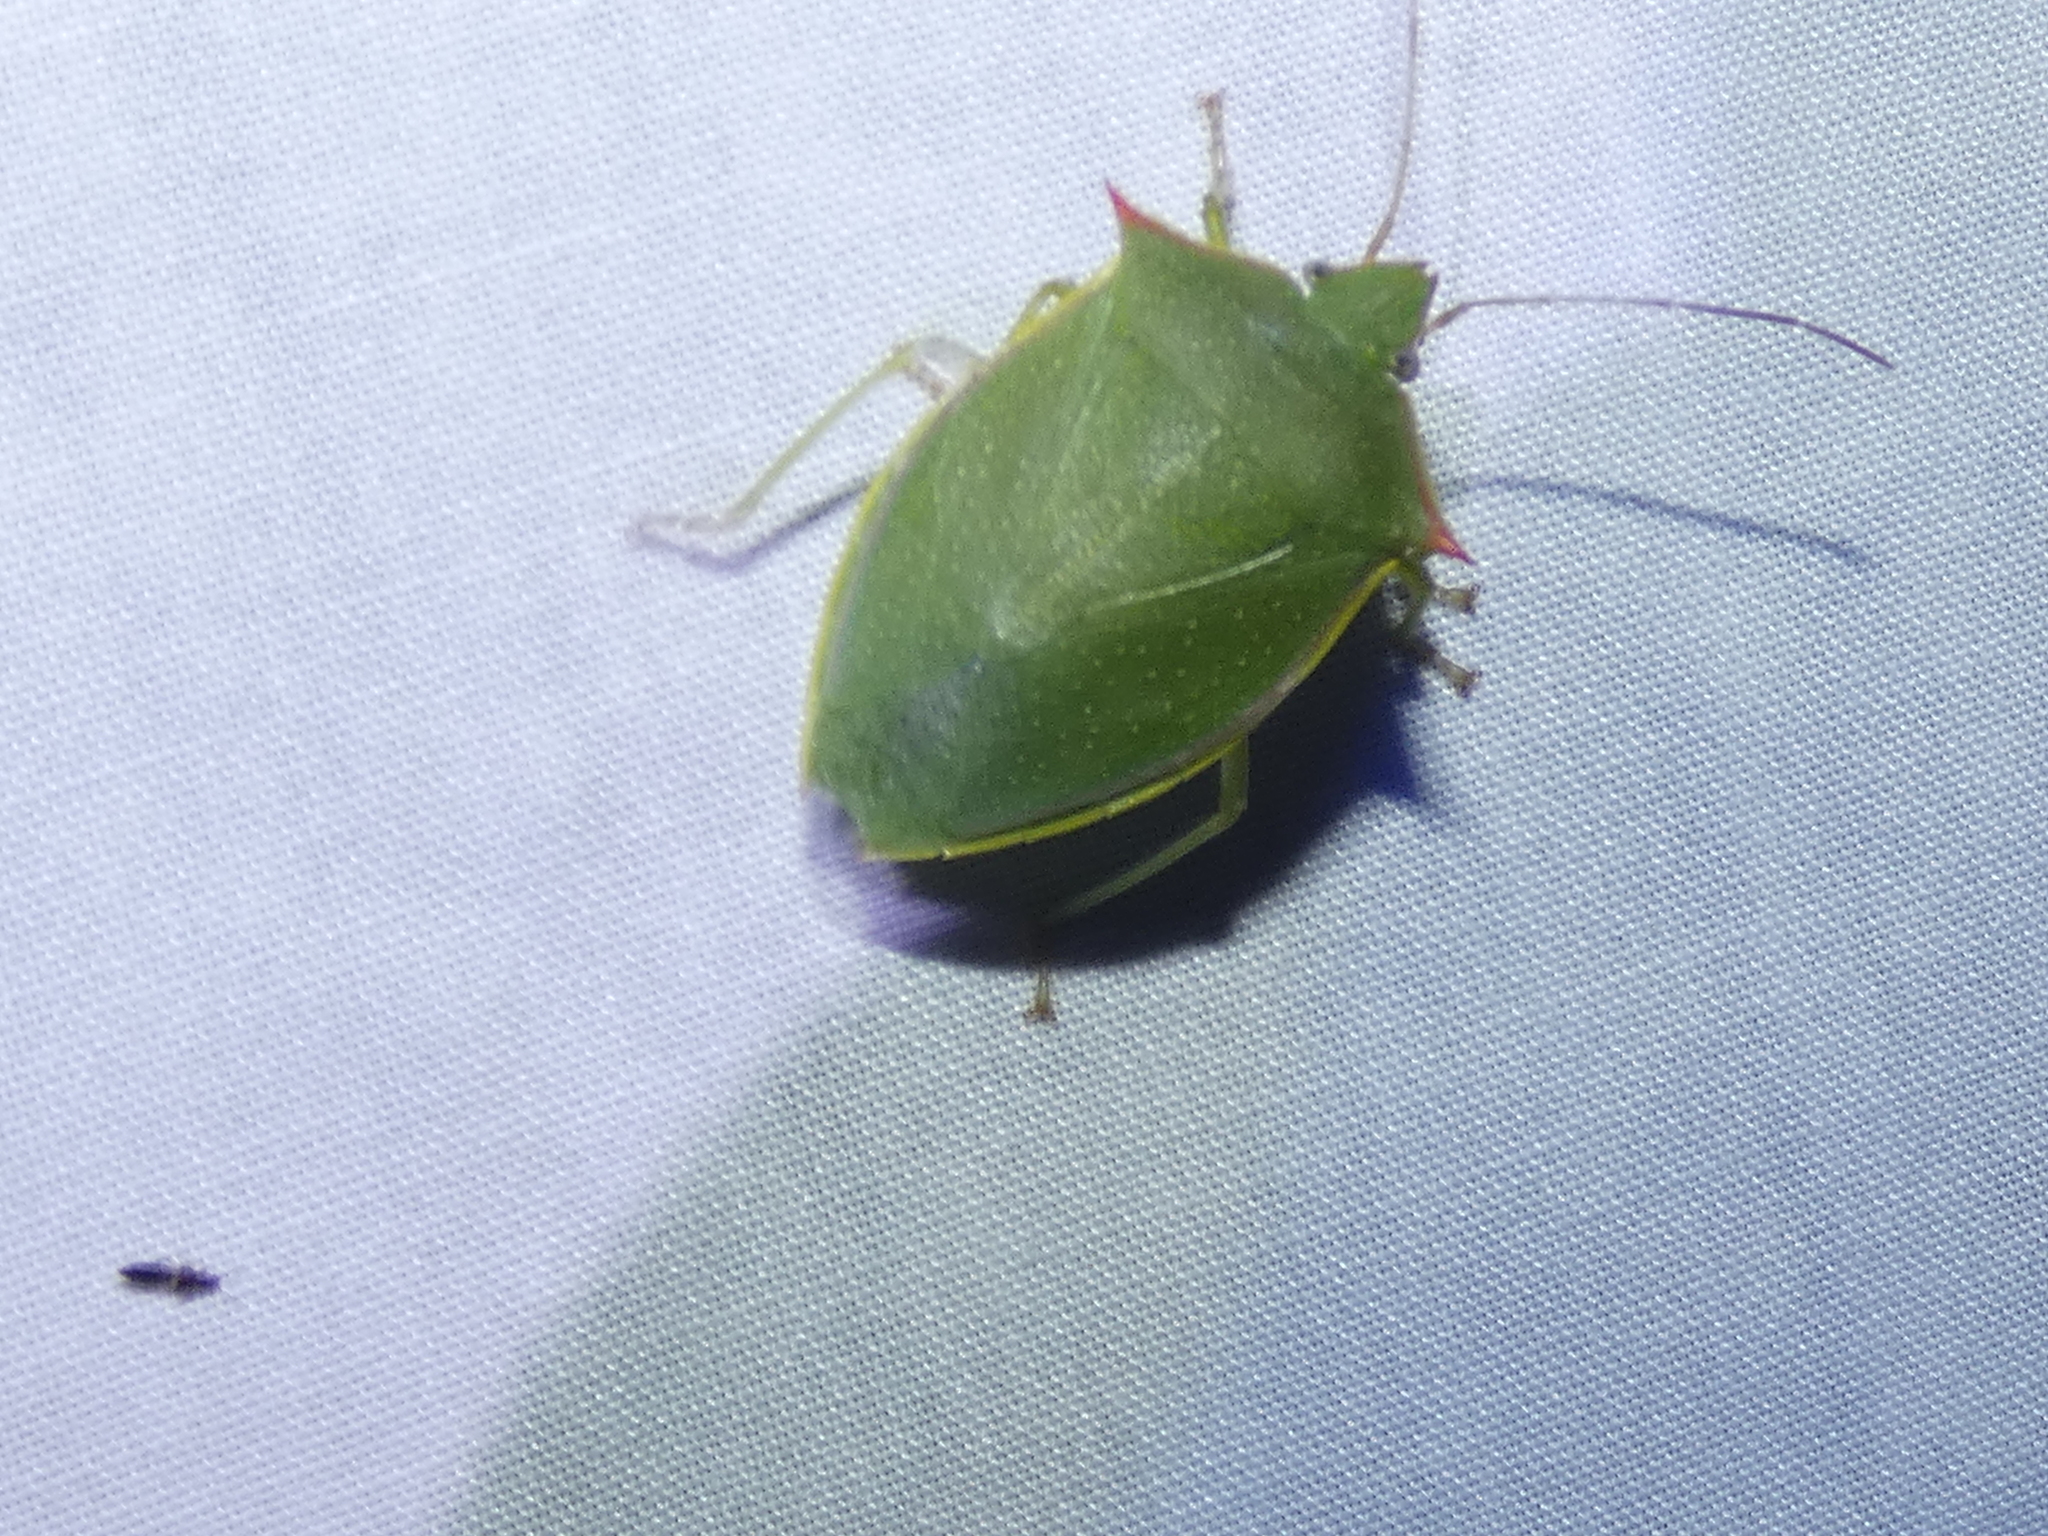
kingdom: Animalia
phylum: Arthropoda
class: Insecta
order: Hemiptera
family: Pentatomidae
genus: Loxa
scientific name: Loxa flavicollis
